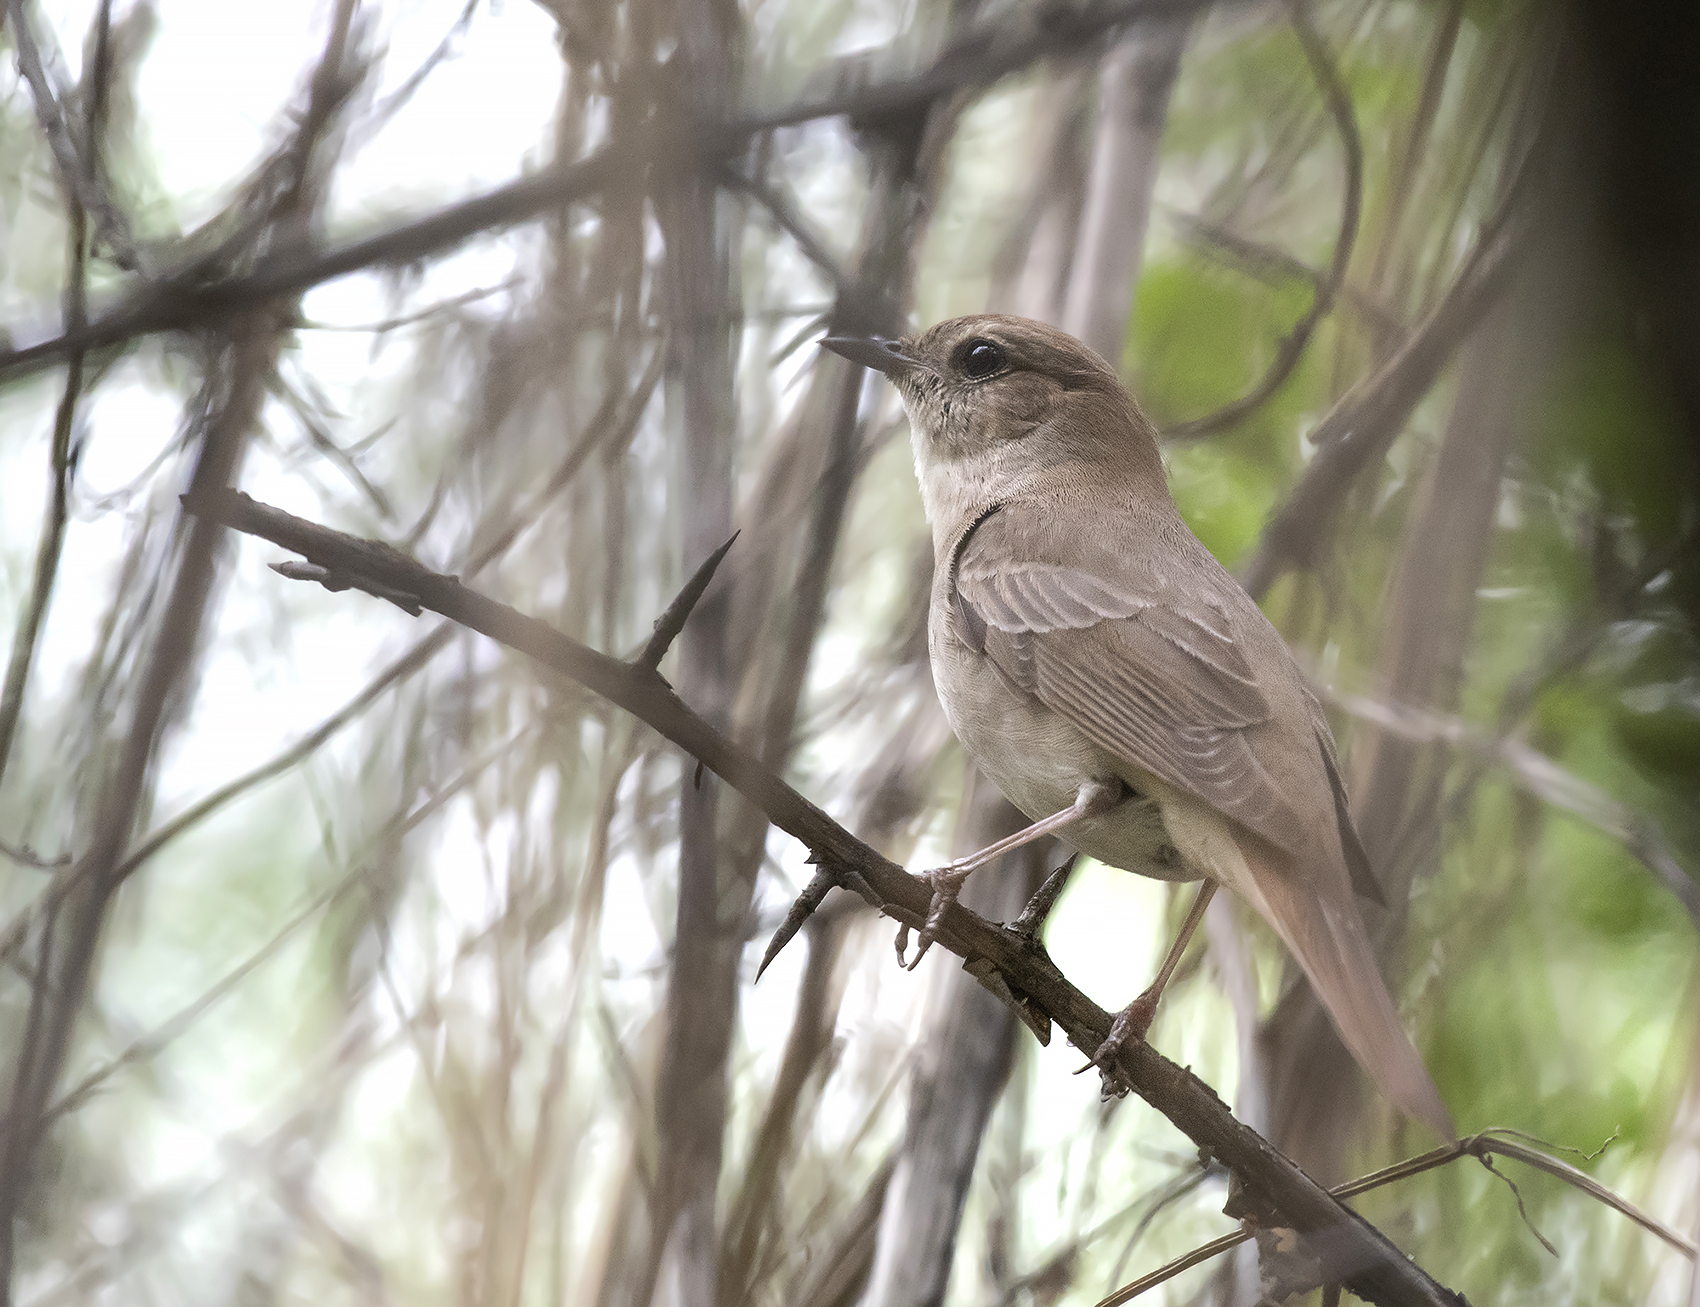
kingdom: Animalia
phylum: Chordata
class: Aves
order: Passeriformes
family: Muscicapidae
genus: Luscinia
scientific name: Luscinia megarhynchos
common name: Common nightingale
